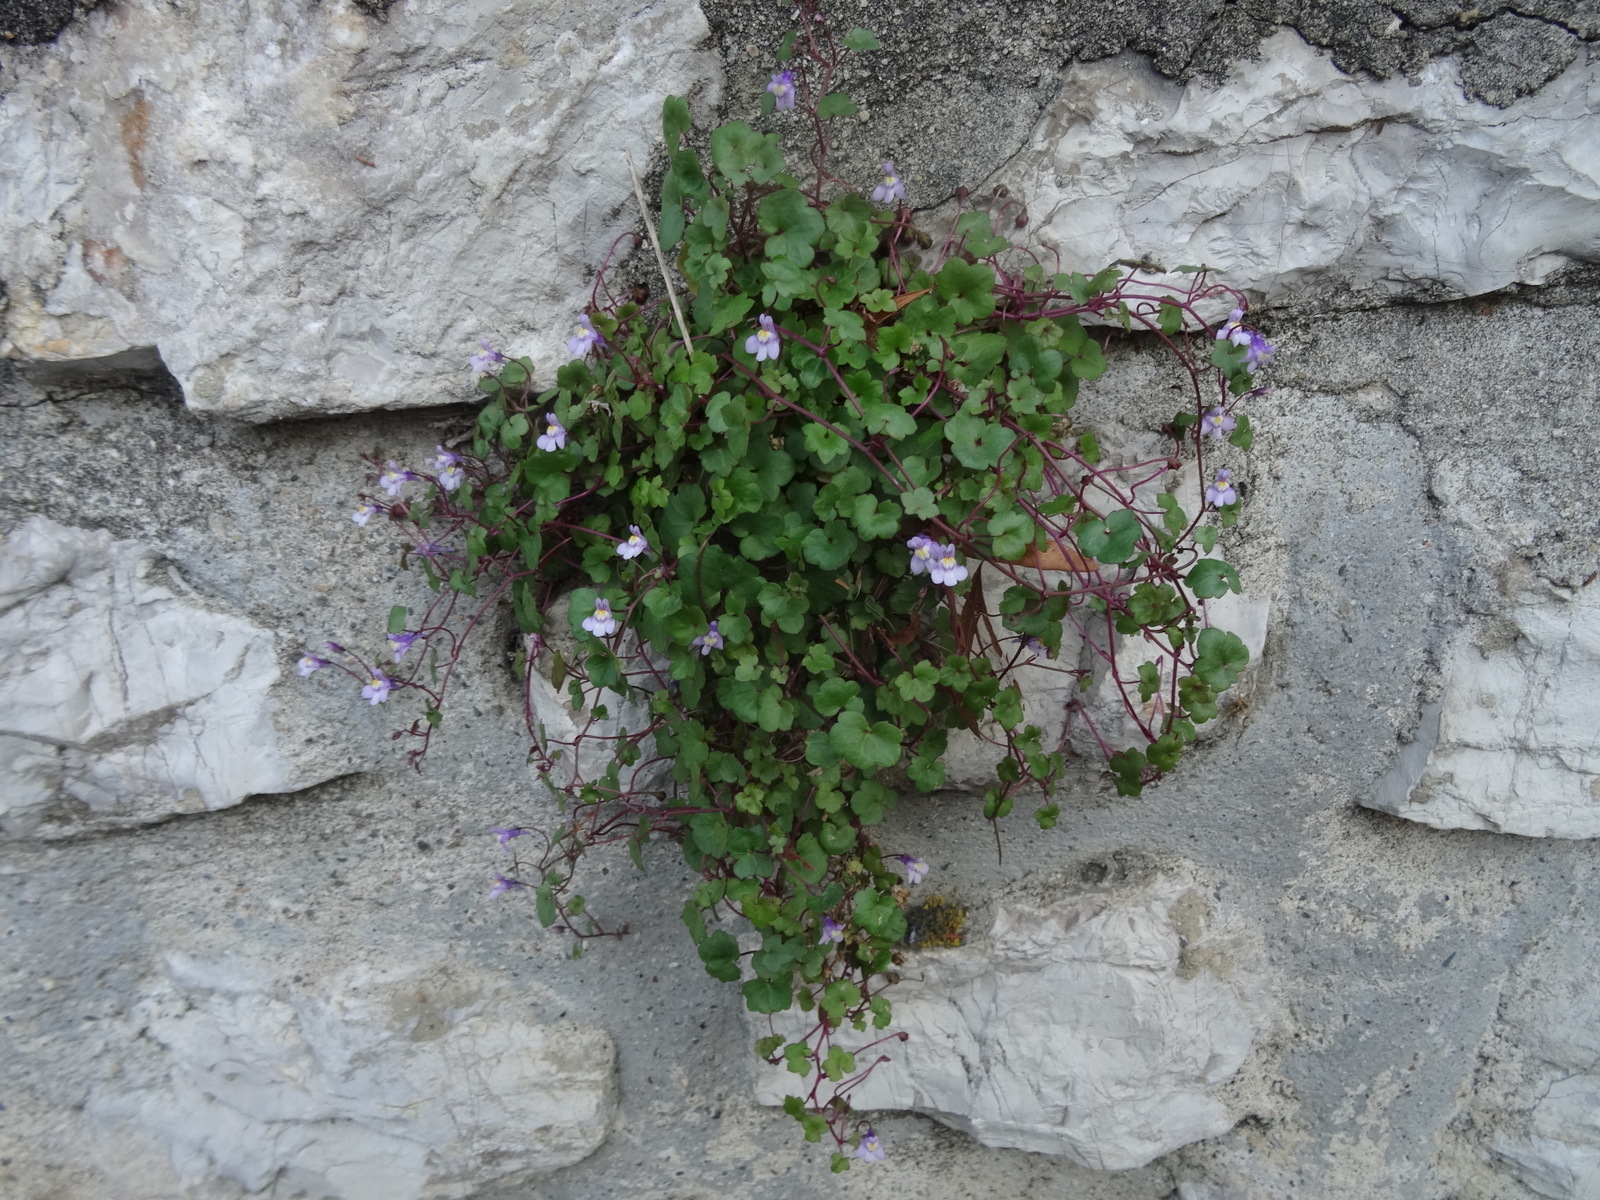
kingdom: Plantae
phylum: Tracheophyta
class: Magnoliopsida
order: Lamiales
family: Plantaginaceae
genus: Cymbalaria
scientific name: Cymbalaria muralis
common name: Ivy-leaved toadflax
